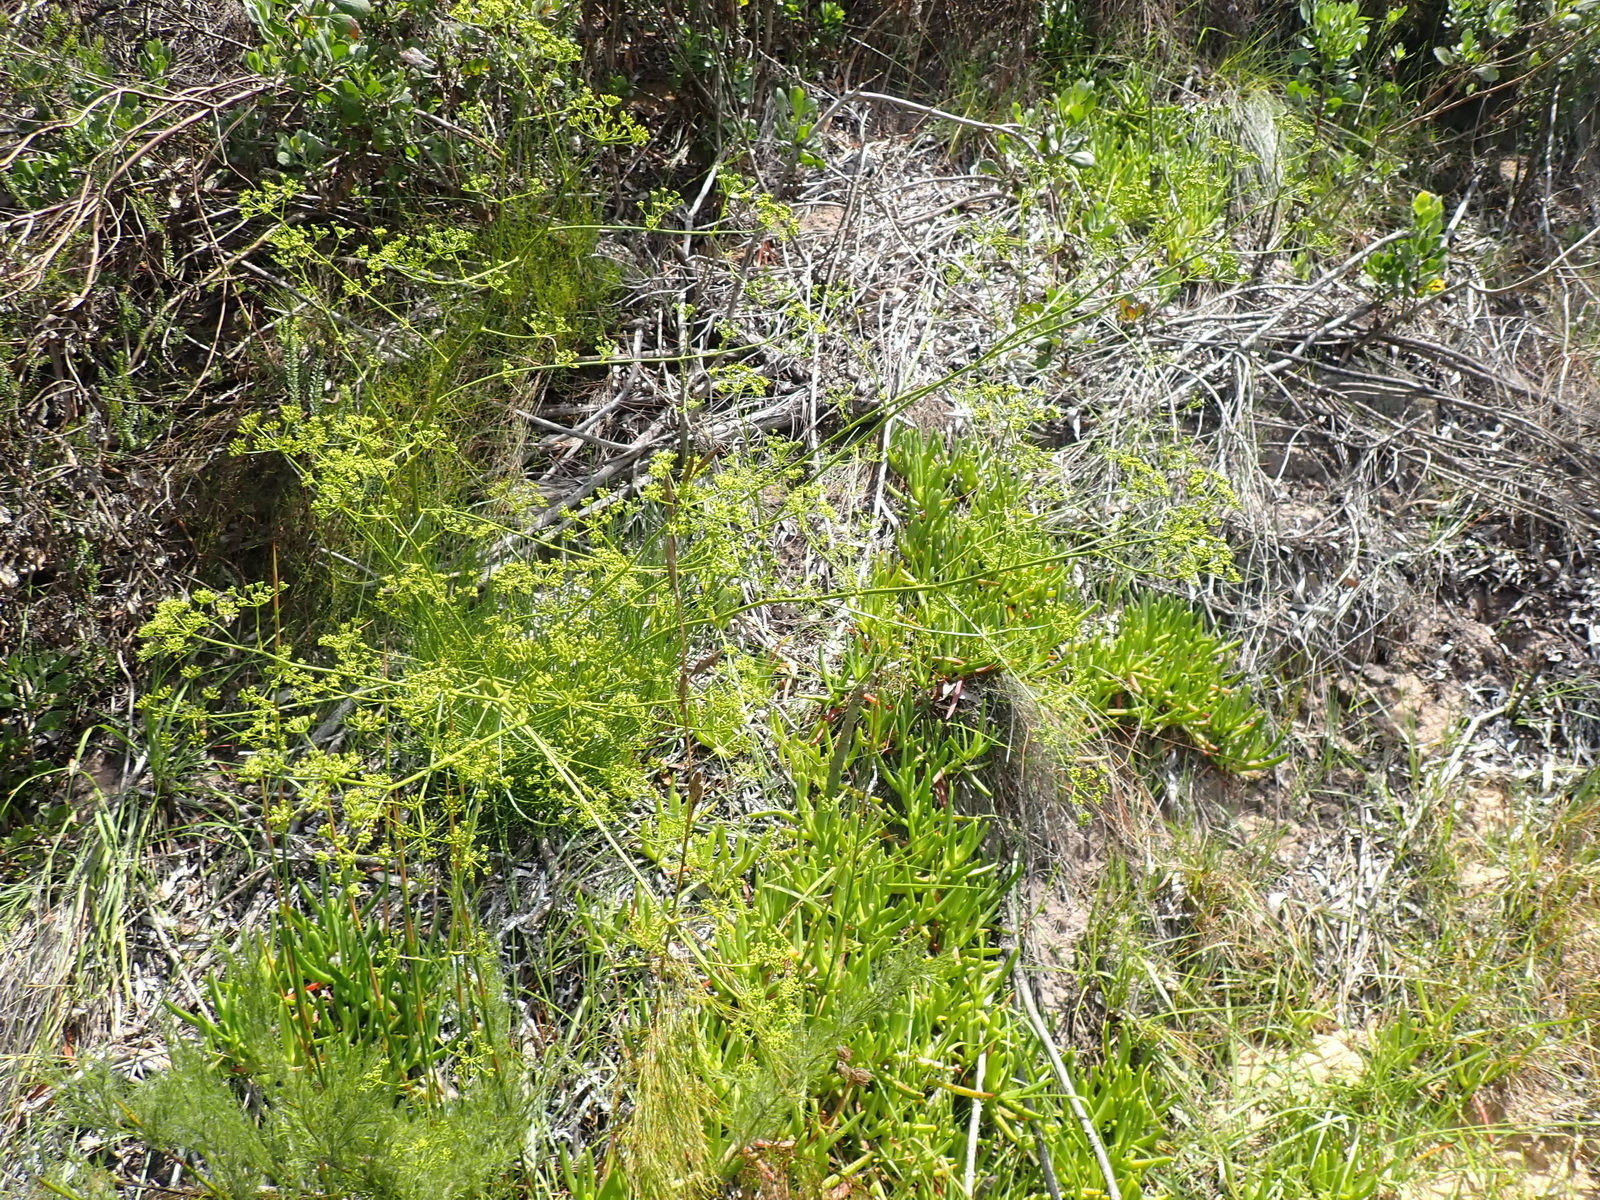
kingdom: Plantae
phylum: Tracheophyta
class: Magnoliopsida
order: Apiales
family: Apiaceae
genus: Anginon
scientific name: Anginon difforme
